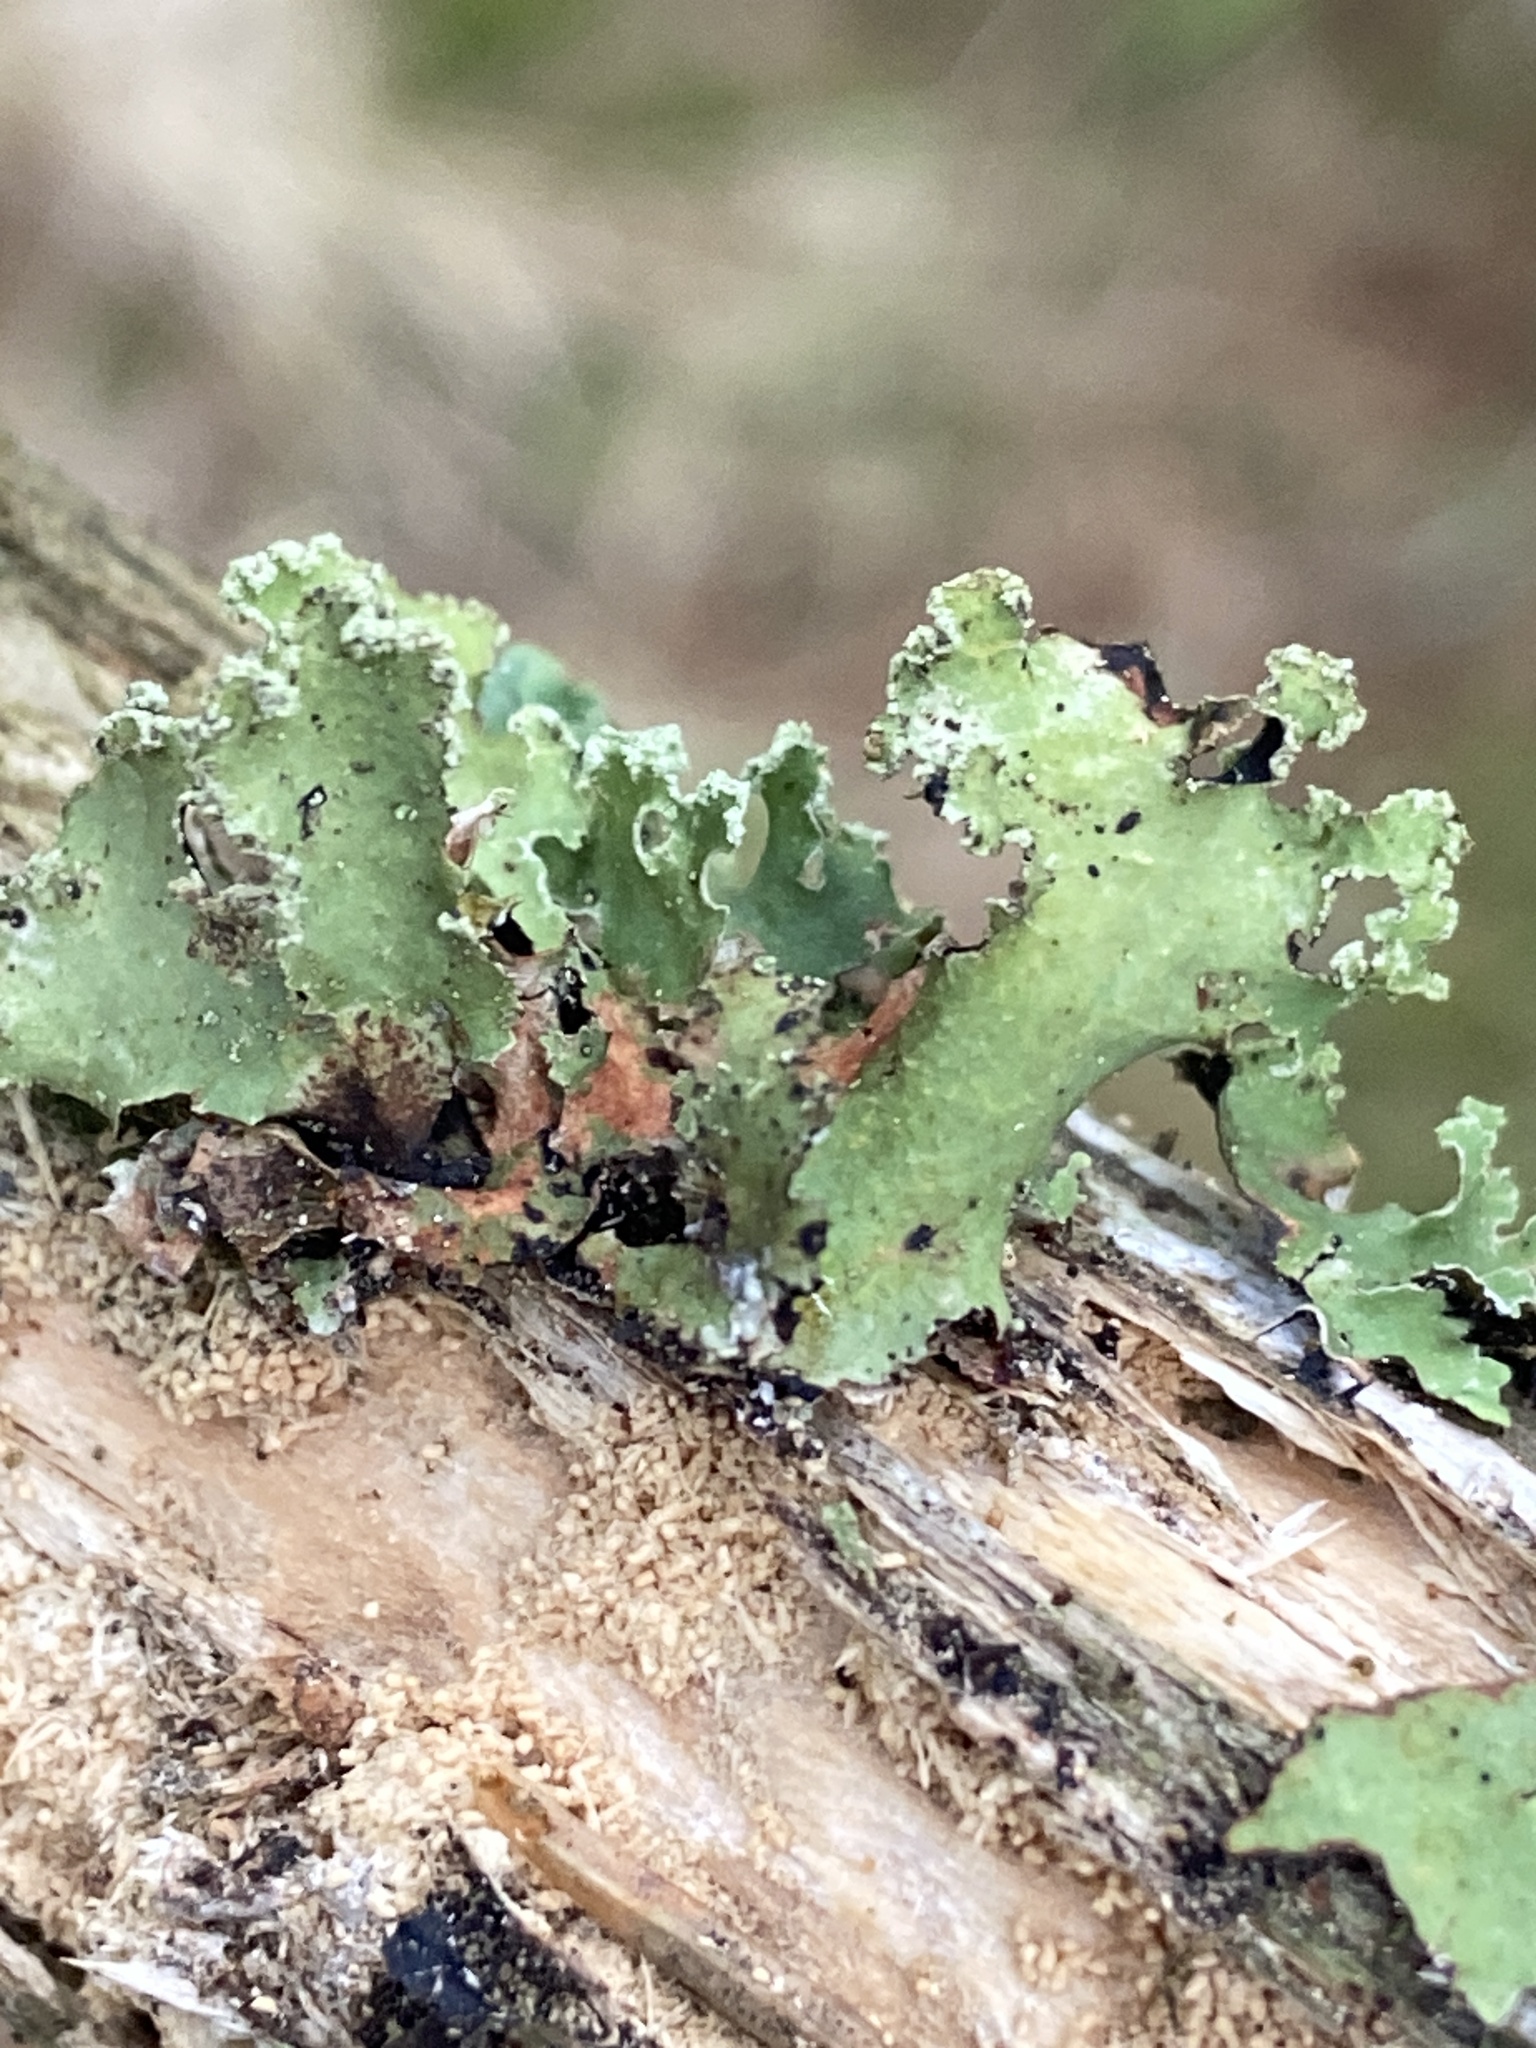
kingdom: Fungi
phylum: Ascomycota
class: Lecanoromycetes
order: Lecanorales
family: Parmeliaceae
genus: Platismatia
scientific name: Platismatia glauca
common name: Varied rag lichen
